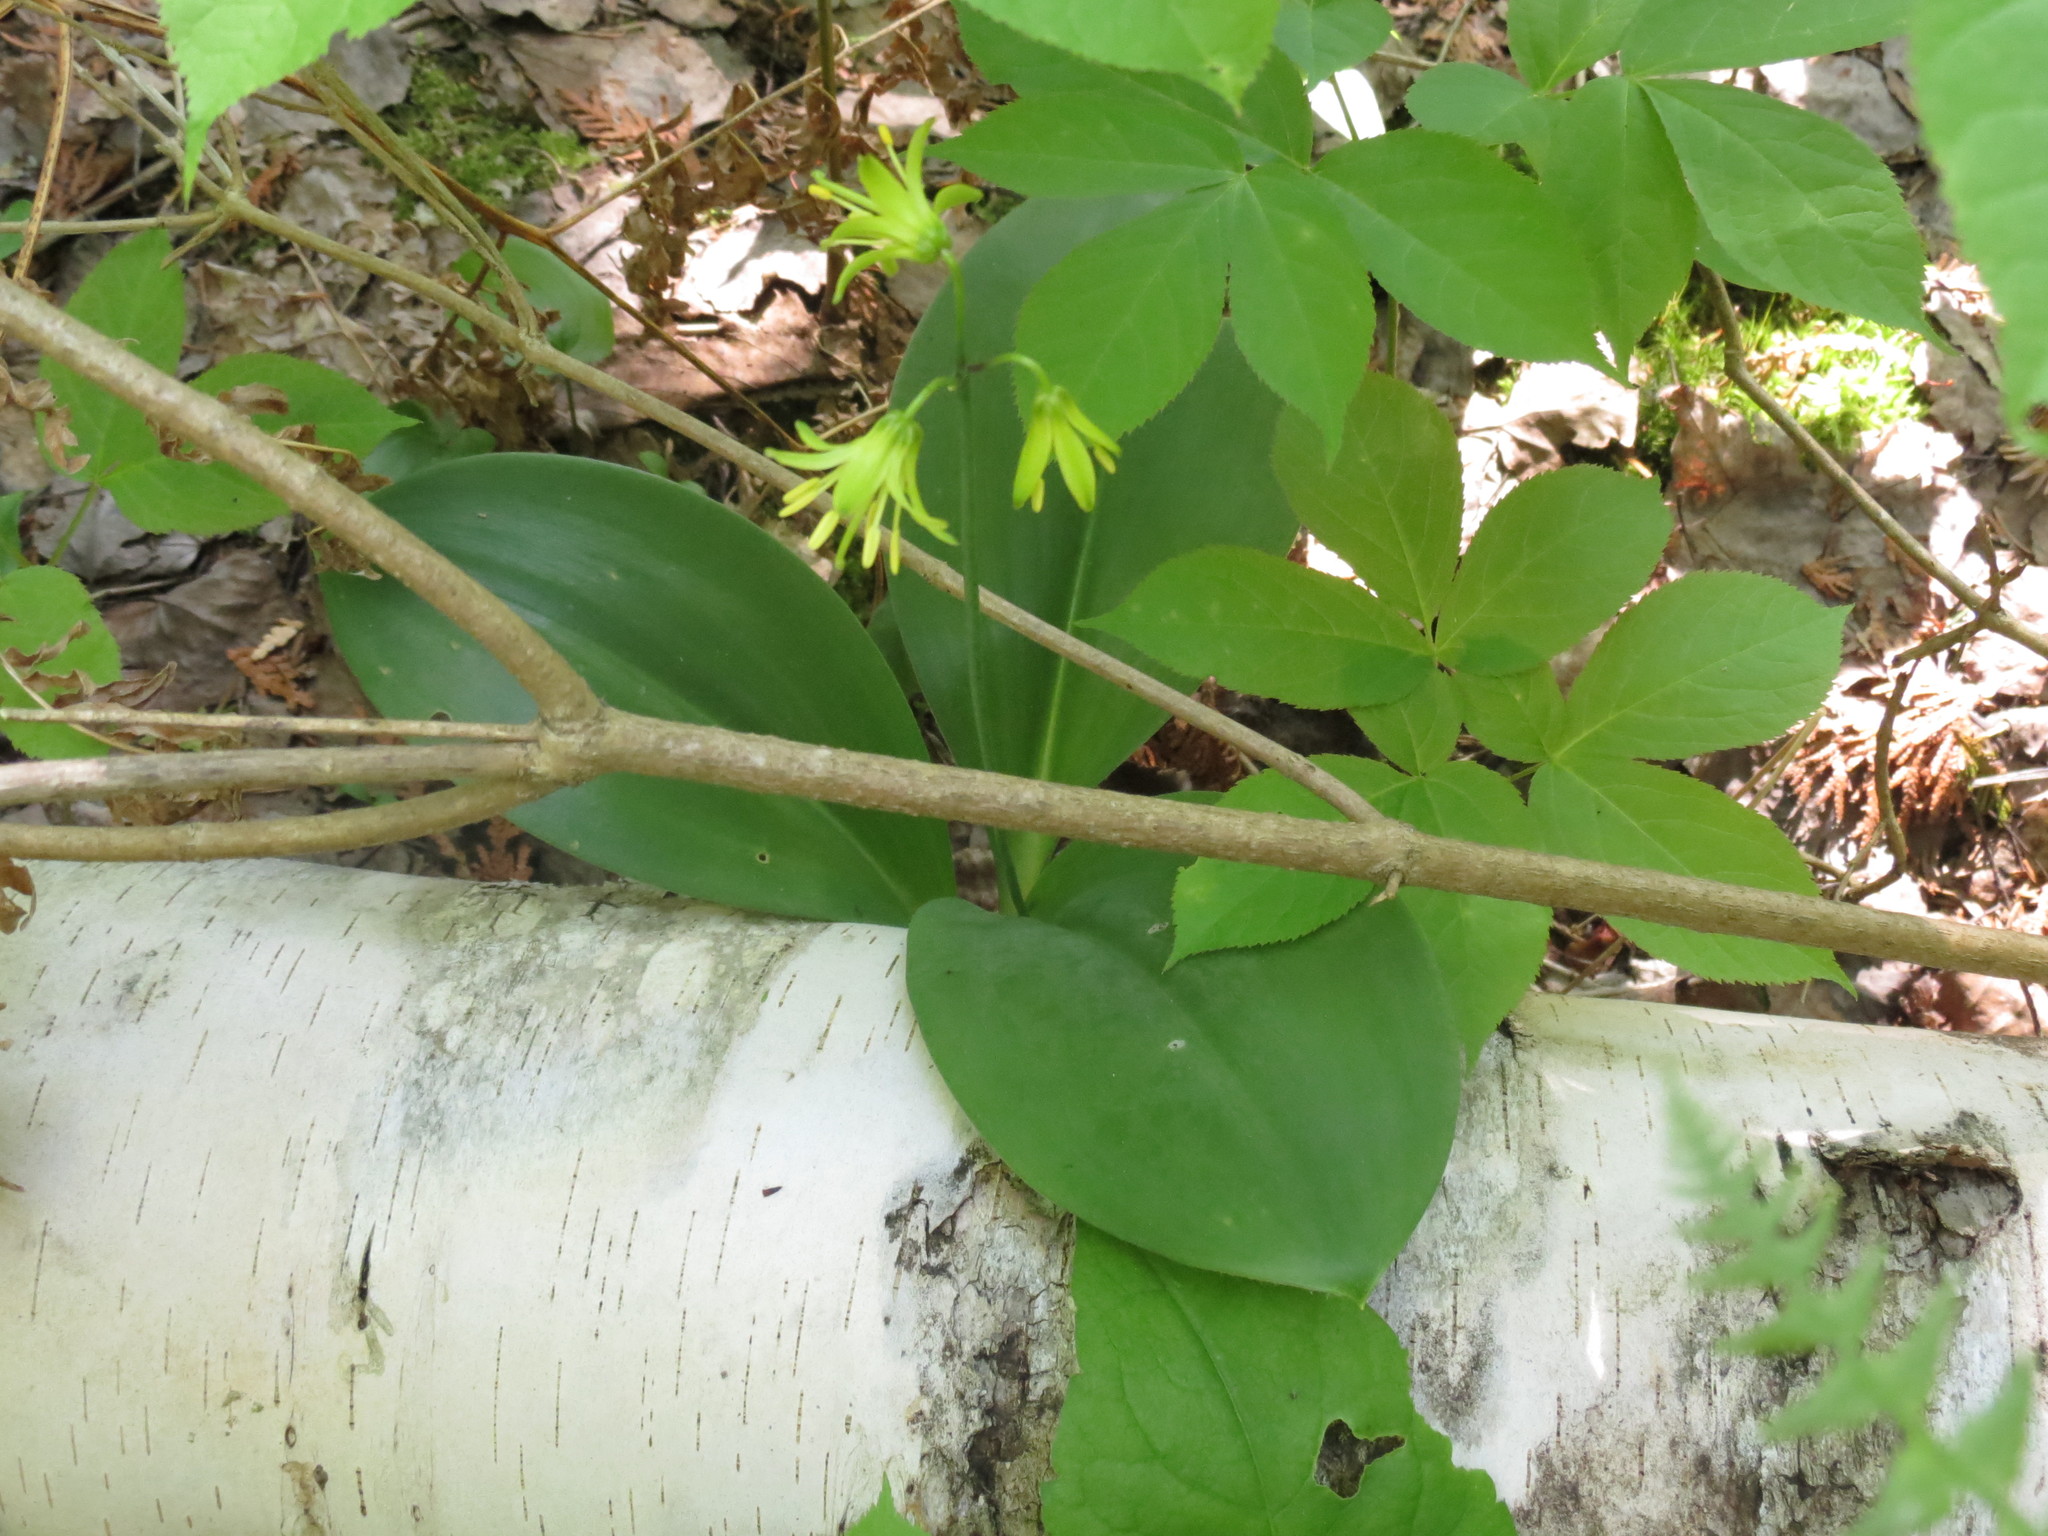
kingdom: Plantae
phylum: Tracheophyta
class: Liliopsida
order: Liliales
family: Liliaceae
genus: Clintonia
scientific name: Clintonia borealis
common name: Yellow clintonia
